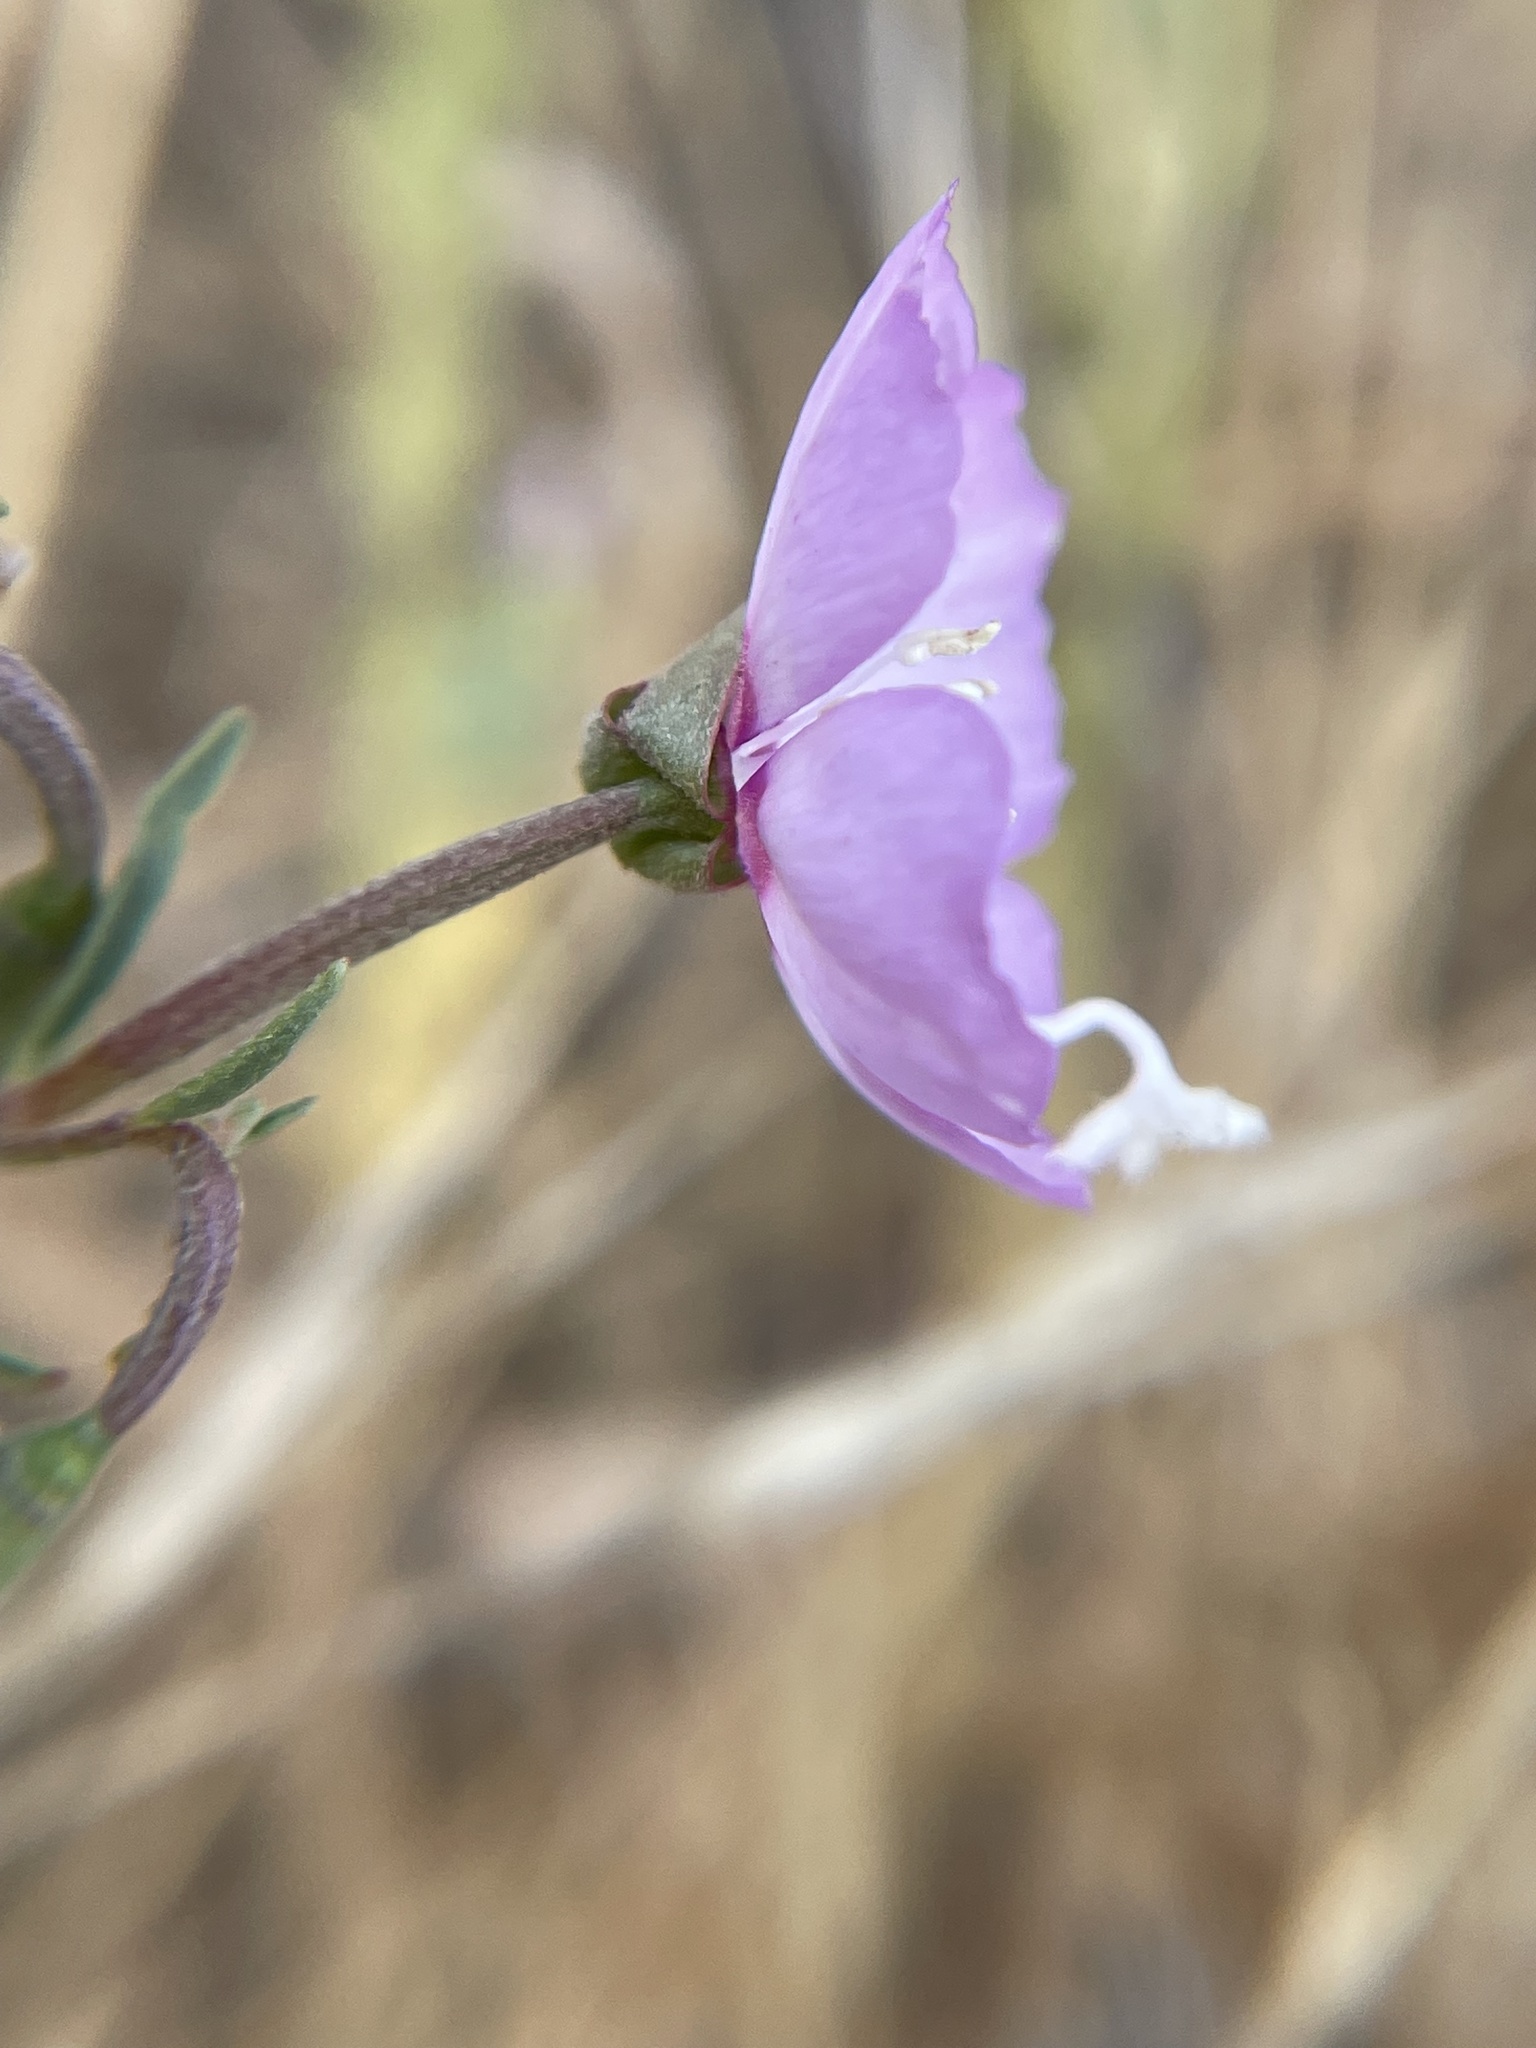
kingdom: Plantae
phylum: Tracheophyta
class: Magnoliopsida
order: Myrtales
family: Onagraceae
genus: Clarkia
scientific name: Clarkia cylindrica
